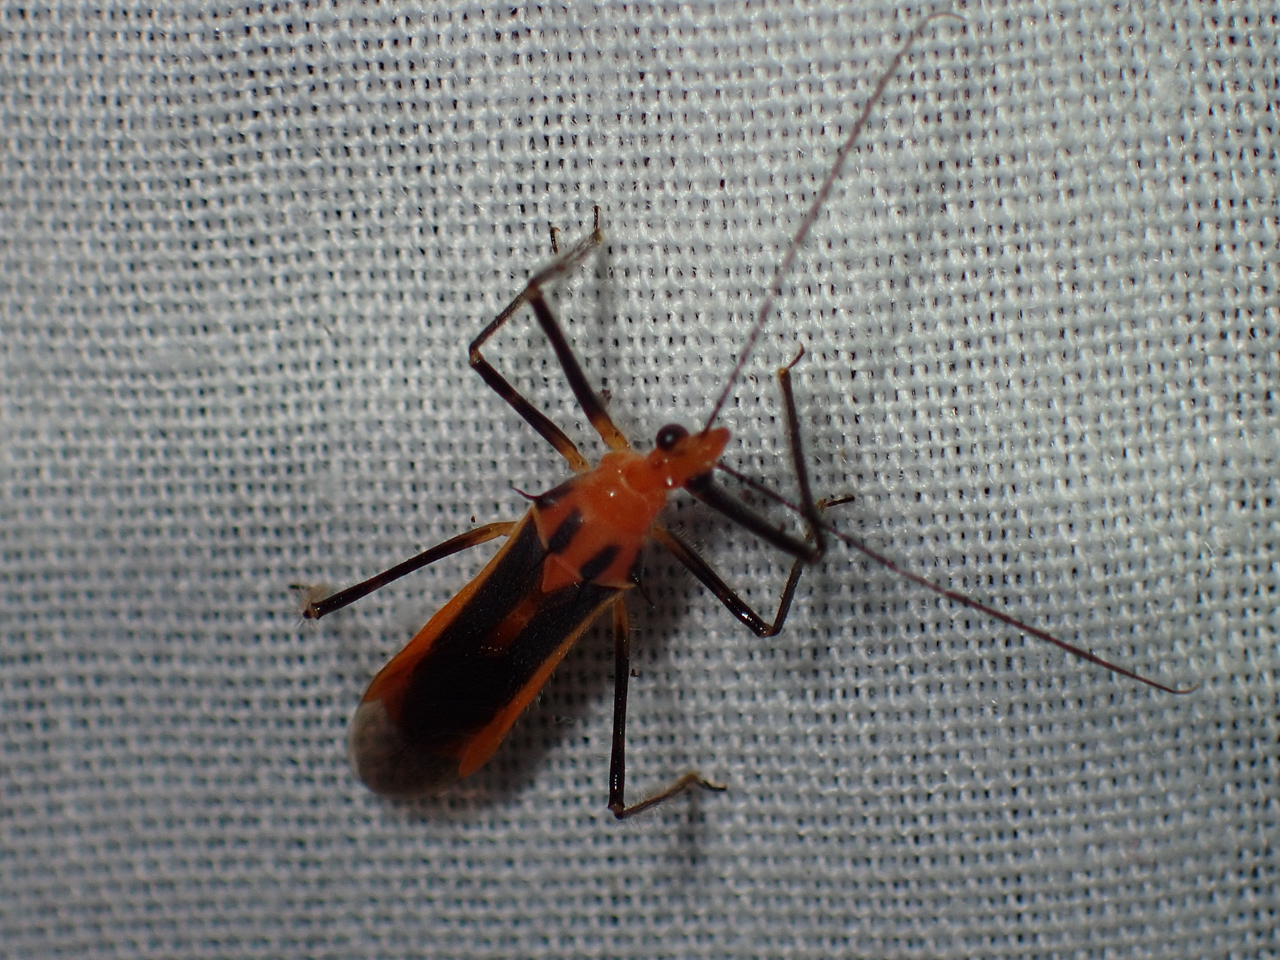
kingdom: Animalia
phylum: Arthropoda
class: Insecta
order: Hemiptera
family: Reduviidae
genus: Repipta
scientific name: Repipta taurus
